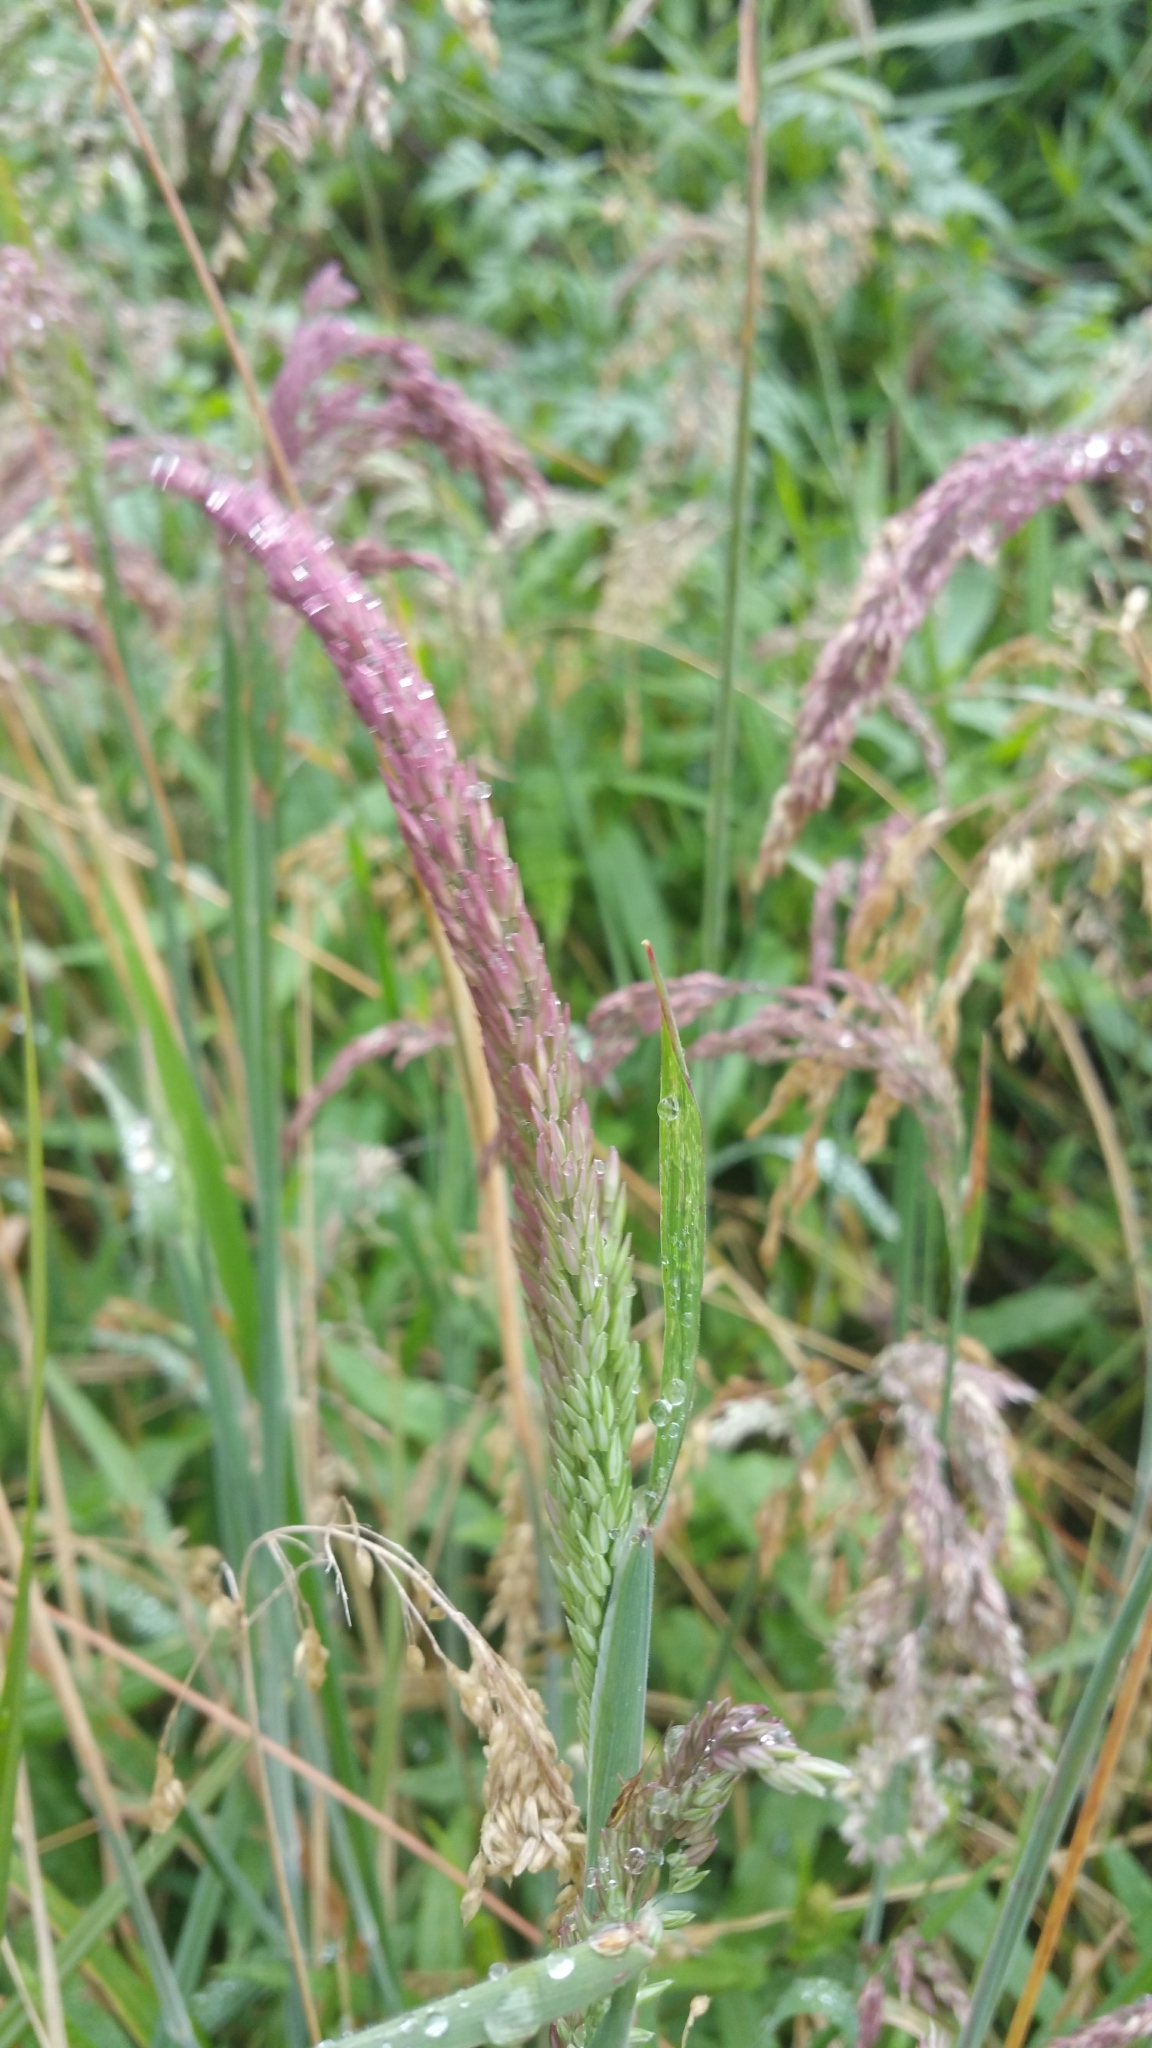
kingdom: Plantae
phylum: Tracheophyta
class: Liliopsida
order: Poales
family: Poaceae
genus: Holcus
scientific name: Holcus lanatus
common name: Yorkshire-fog
